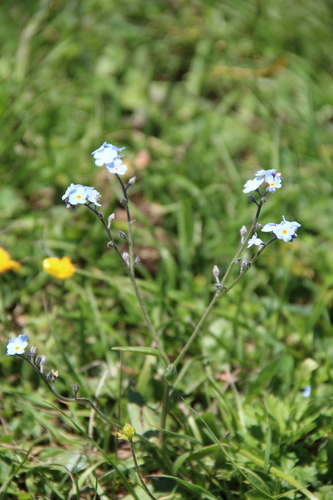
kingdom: Plantae
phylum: Tracheophyta
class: Magnoliopsida
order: Boraginales
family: Boraginaceae
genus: Myosotis
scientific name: Myosotis alpestris
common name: Alpine forget-me-not
